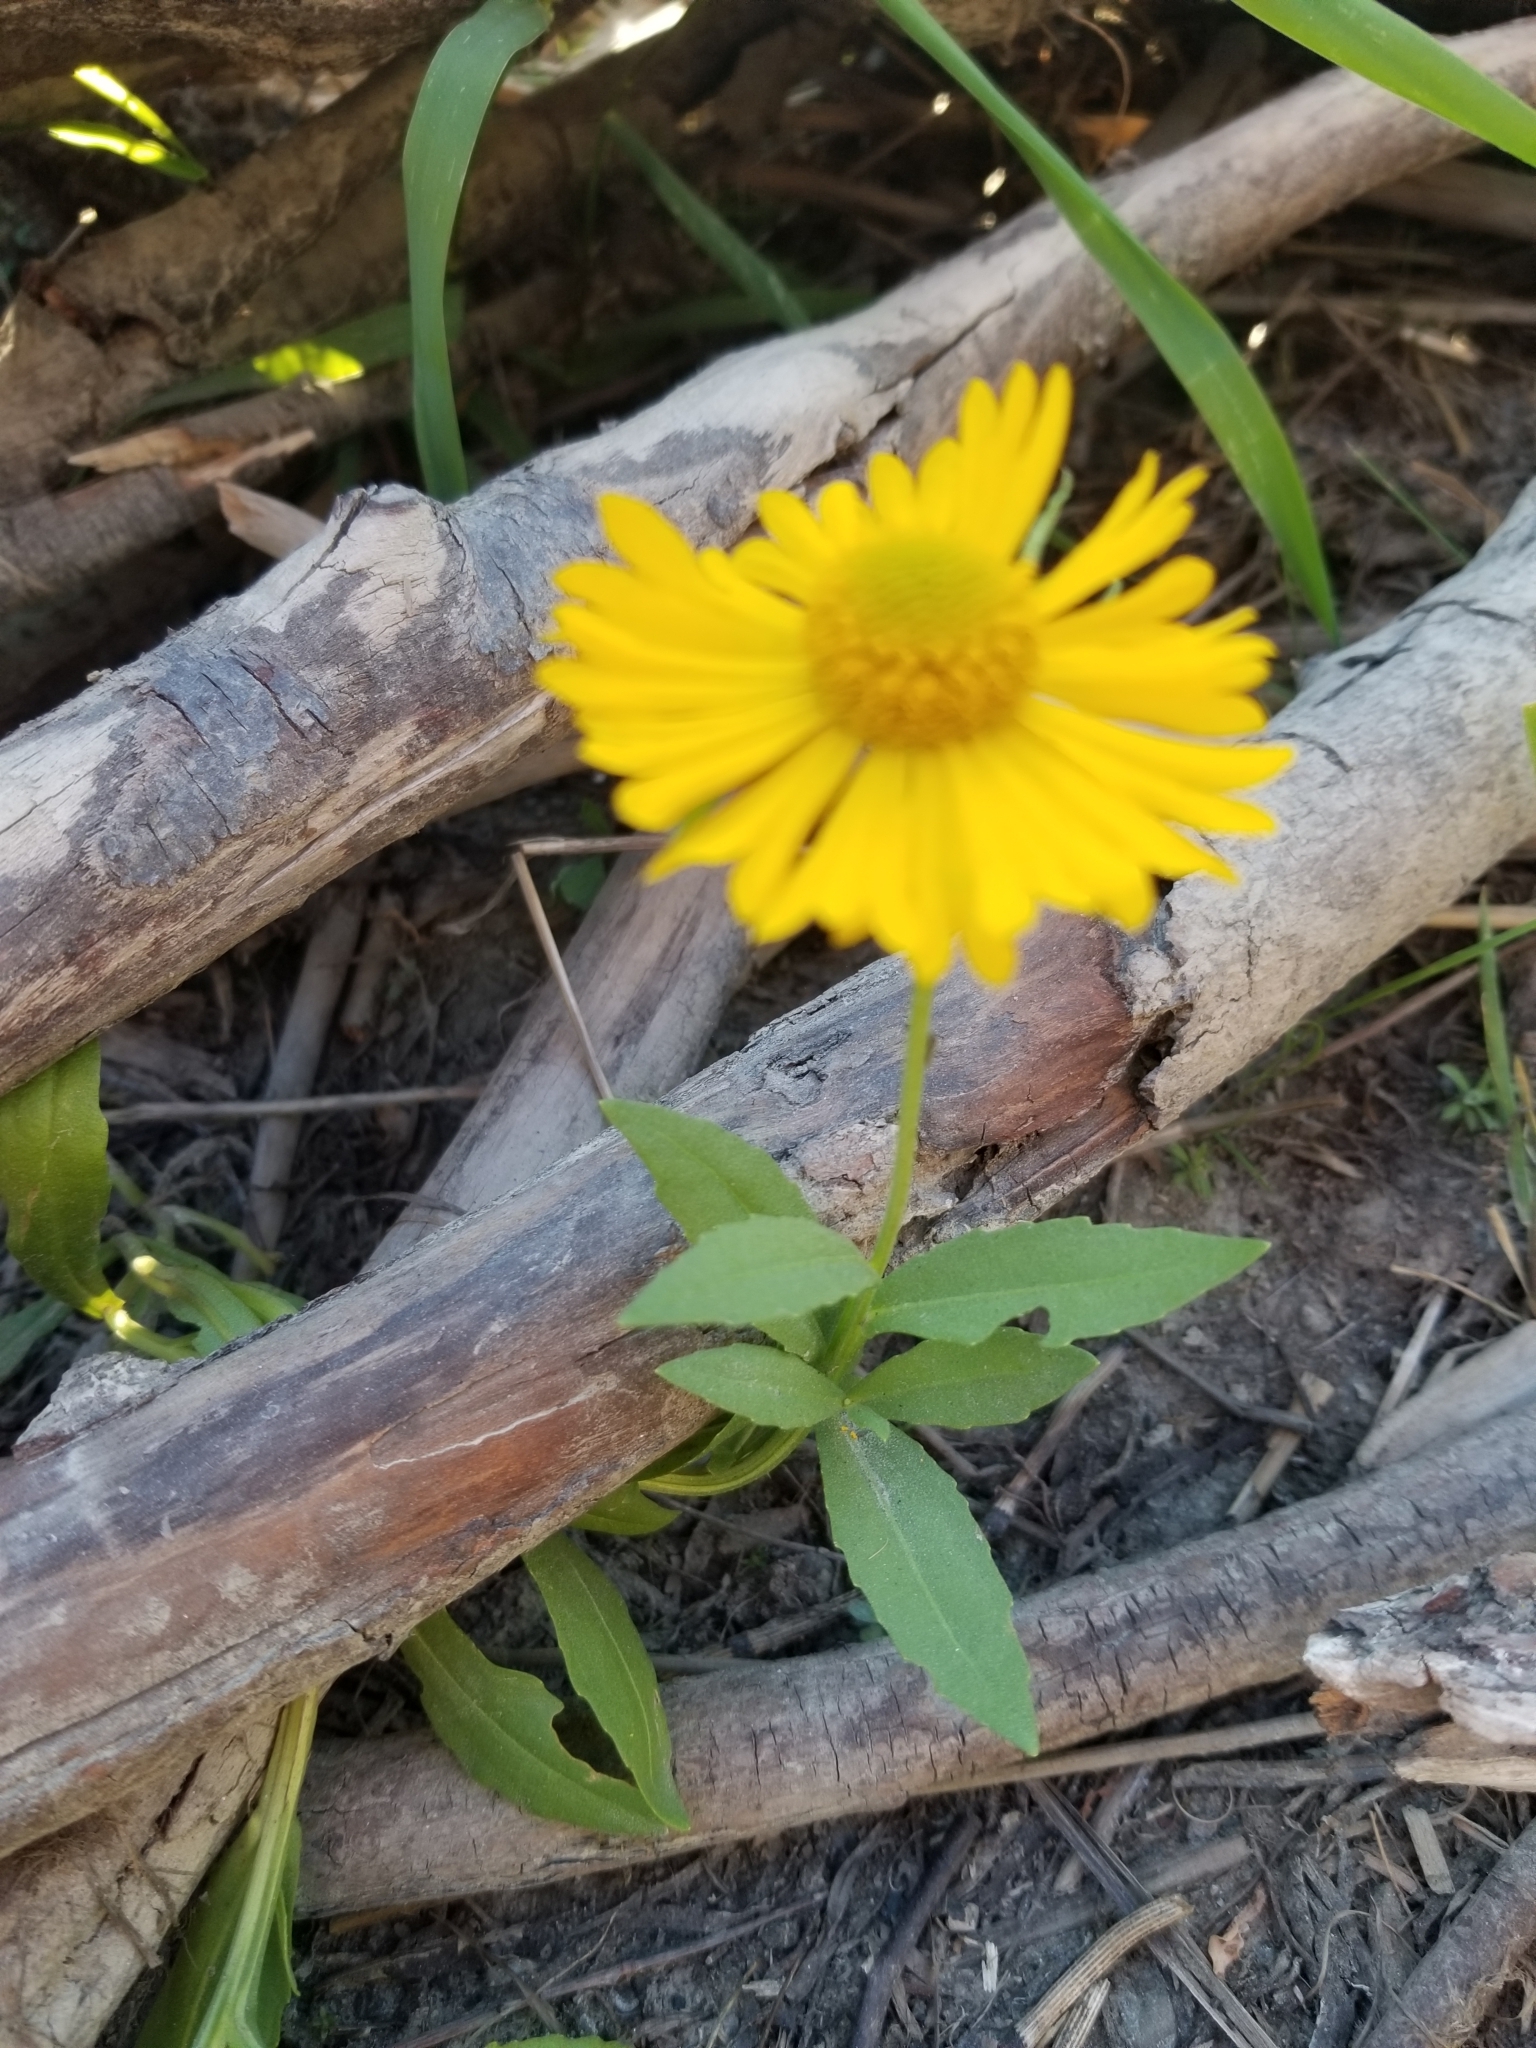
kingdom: Plantae
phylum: Tracheophyta
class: Magnoliopsida
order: Asterales
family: Asteraceae
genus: Helenium
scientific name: Helenium autumnale
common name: Sneezeweed
